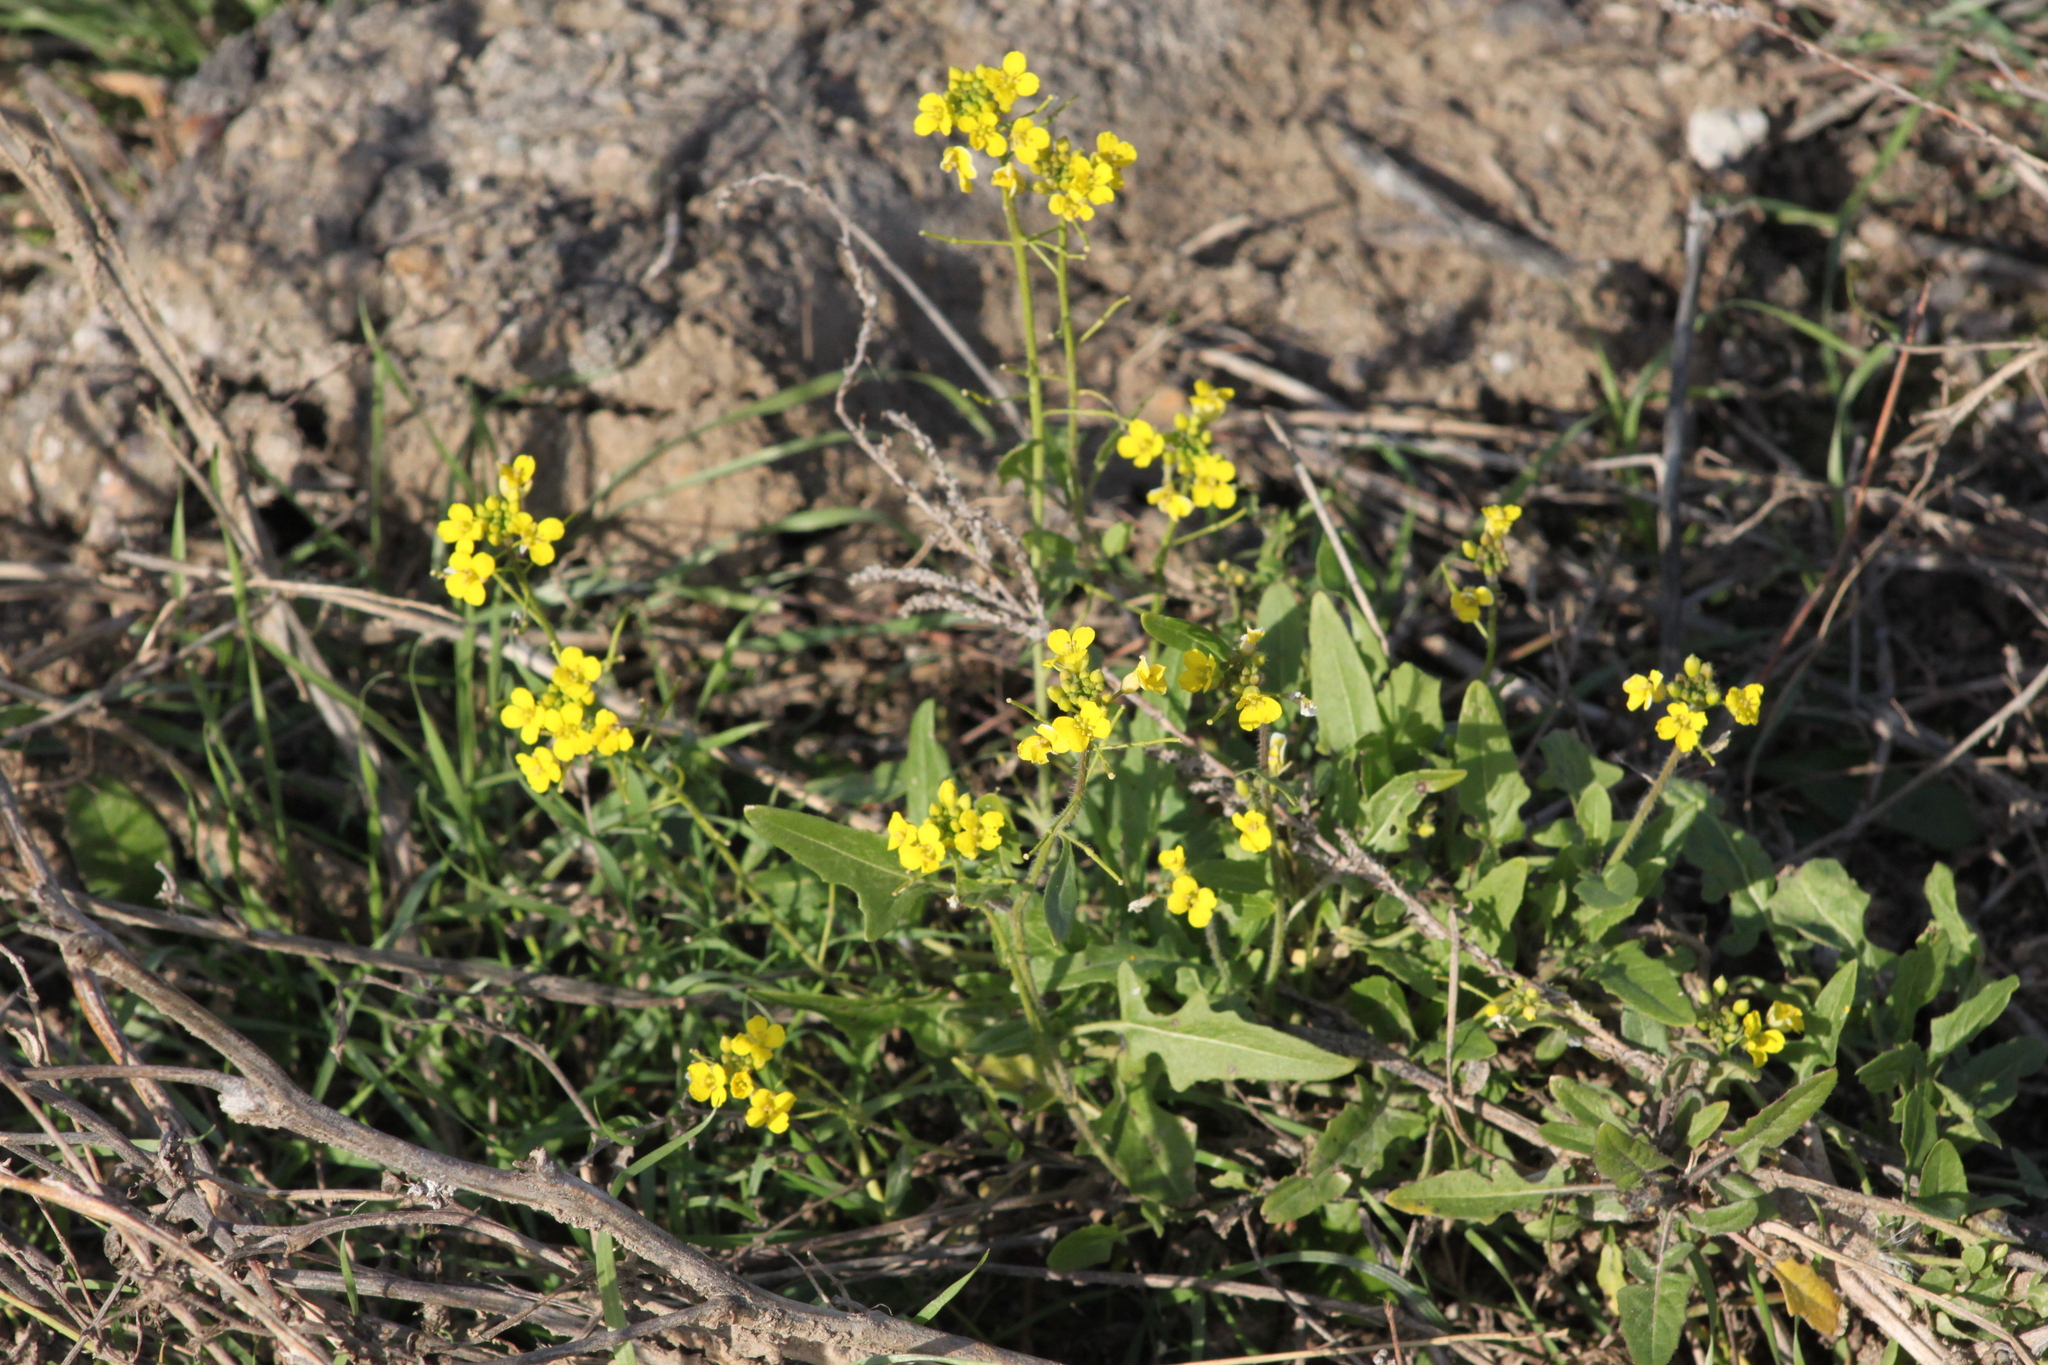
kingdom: Plantae
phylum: Tracheophyta
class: Magnoliopsida
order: Brassicales
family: Brassicaceae
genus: Sisymbrium
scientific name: Sisymbrium loeselii
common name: False london-rocket
